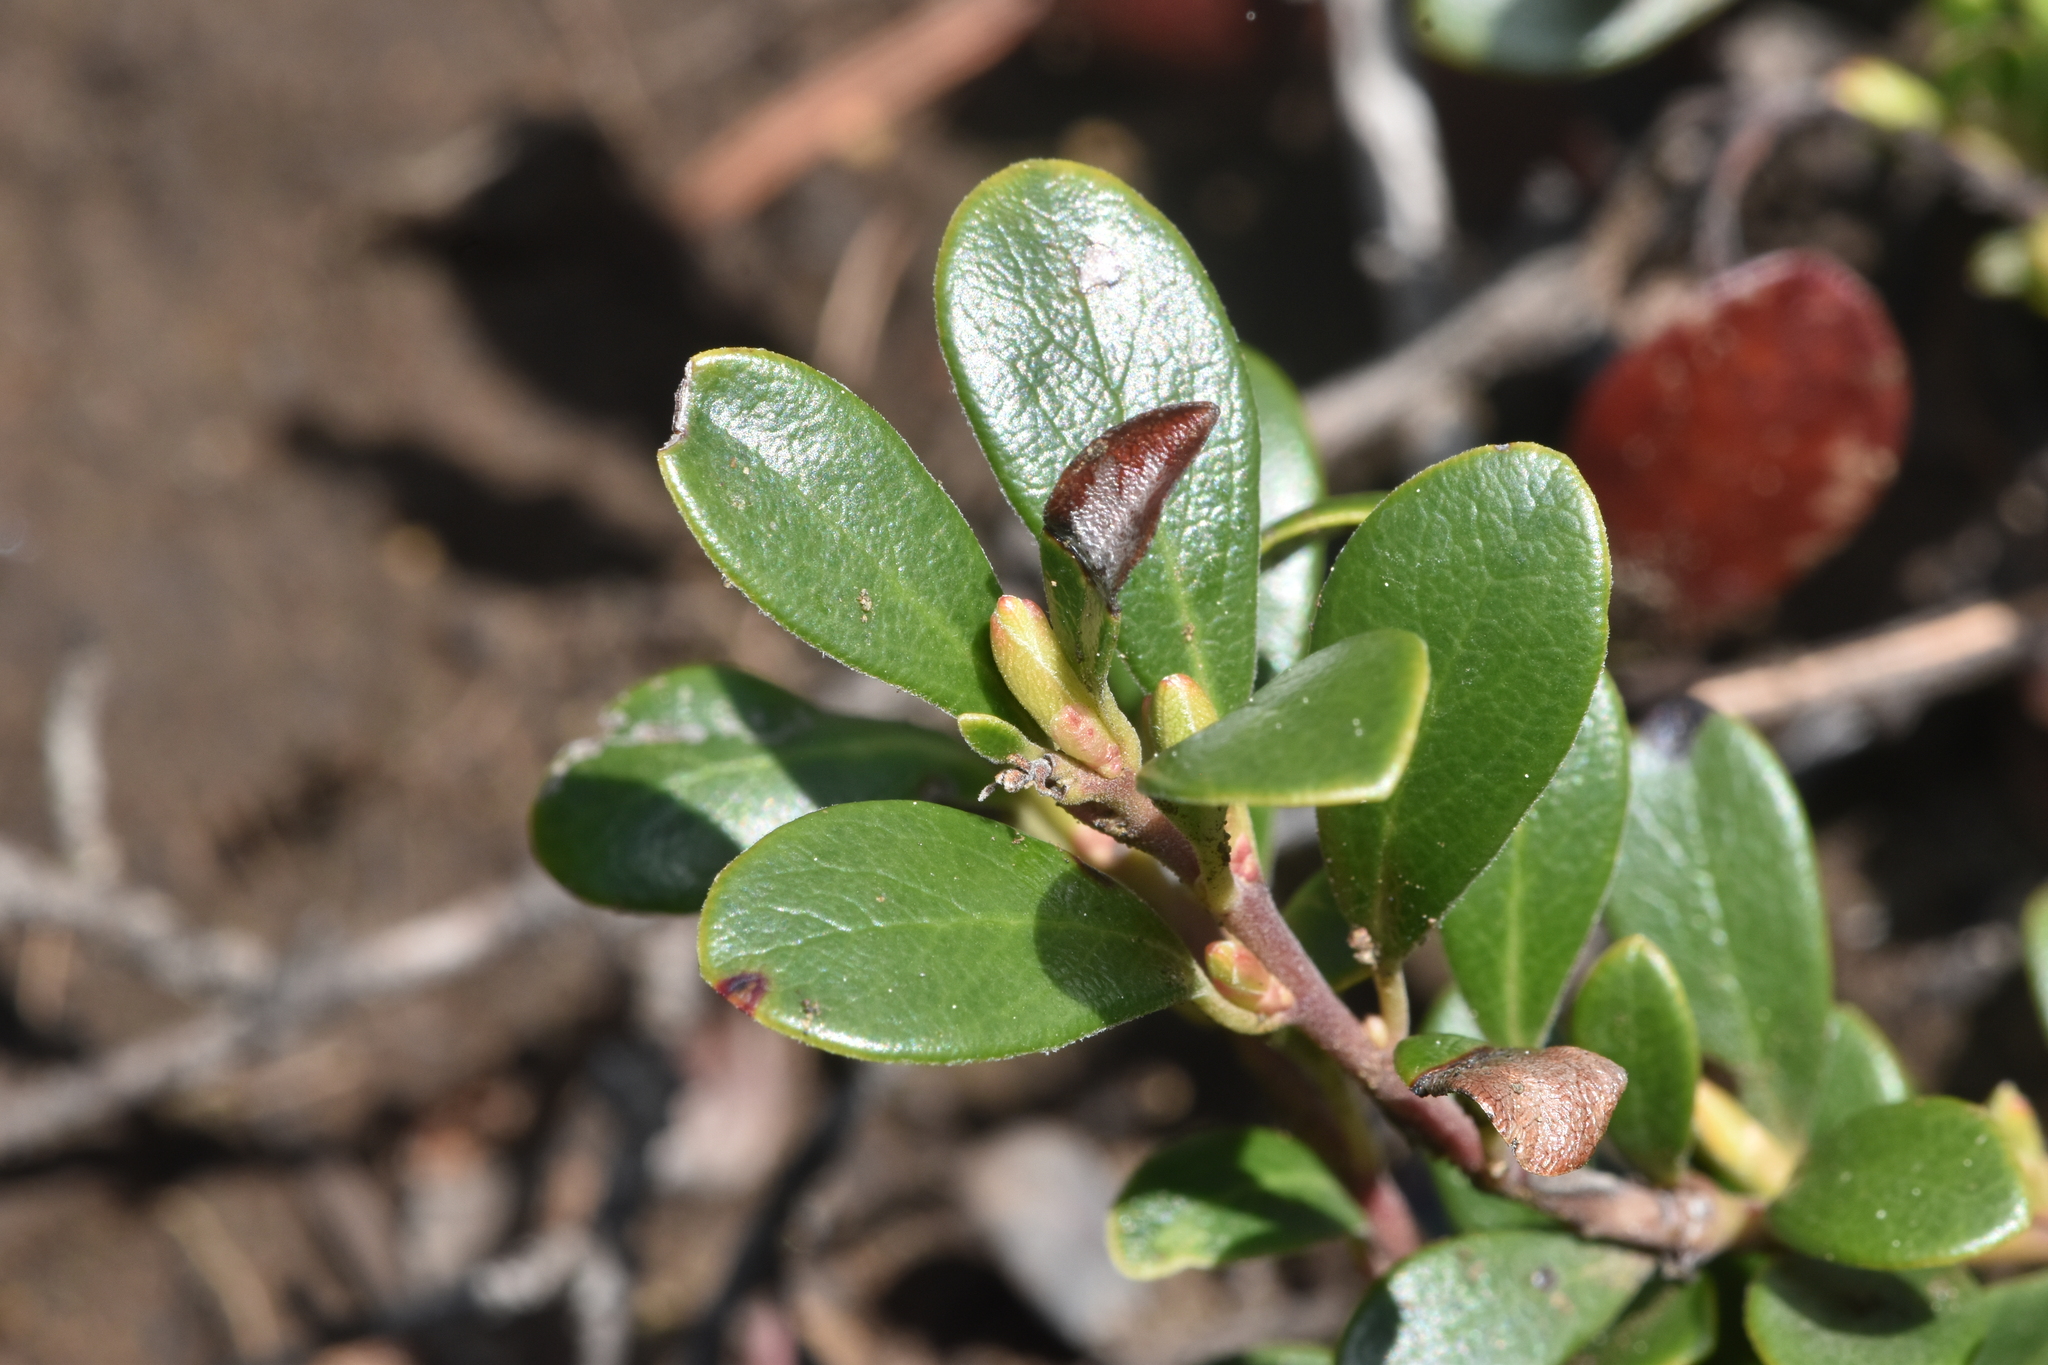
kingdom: Plantae
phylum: Tracheophyta
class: Magnoliopsida
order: Ericales
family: Ericaceae
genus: Arctostaphylos
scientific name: Arctostaphylos uva-ursi
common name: Bearberry
